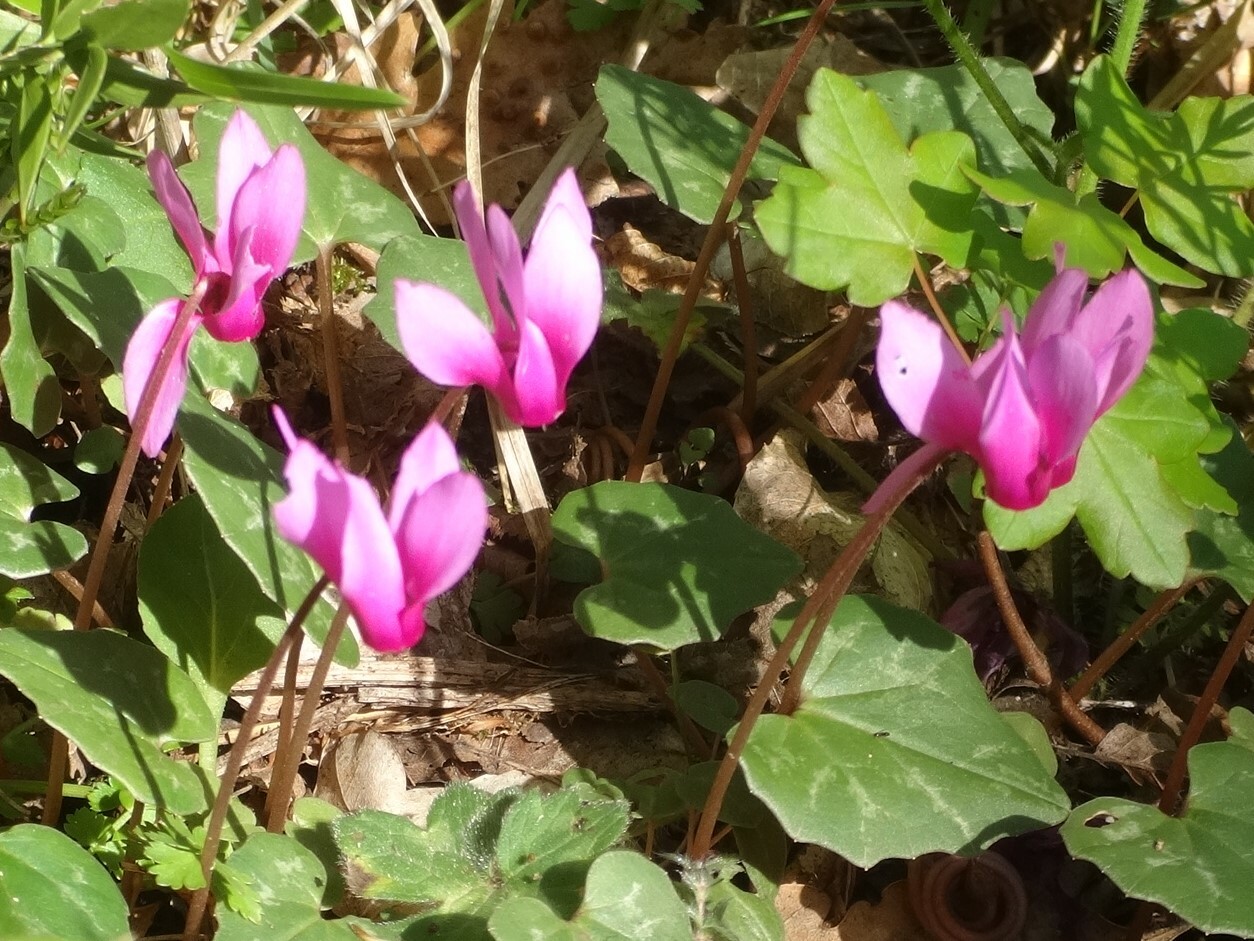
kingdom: Plantae
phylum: Tracheophyta
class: Magnoliopsida
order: Ericales
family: Primulaceae
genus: Cyclamen
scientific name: Cyclamen repandum
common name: Spring sowbread
